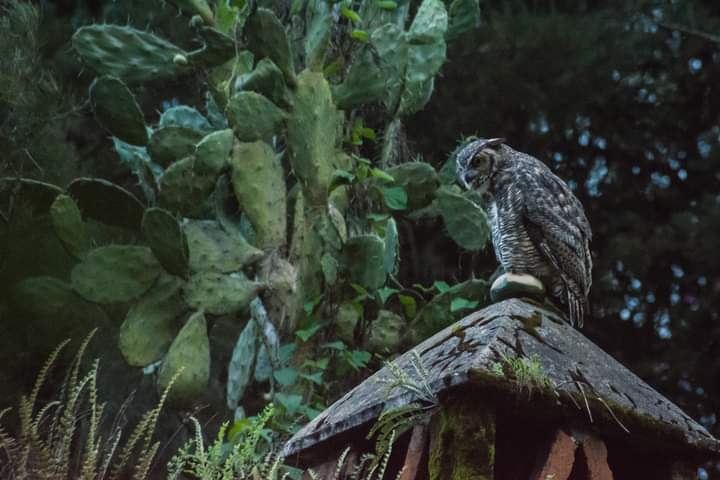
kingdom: Animalia
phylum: Chordata
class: Aves
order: Strigiformes
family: Strigidae
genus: Bubo
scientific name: Bubo virginianus
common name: Great horned owl
